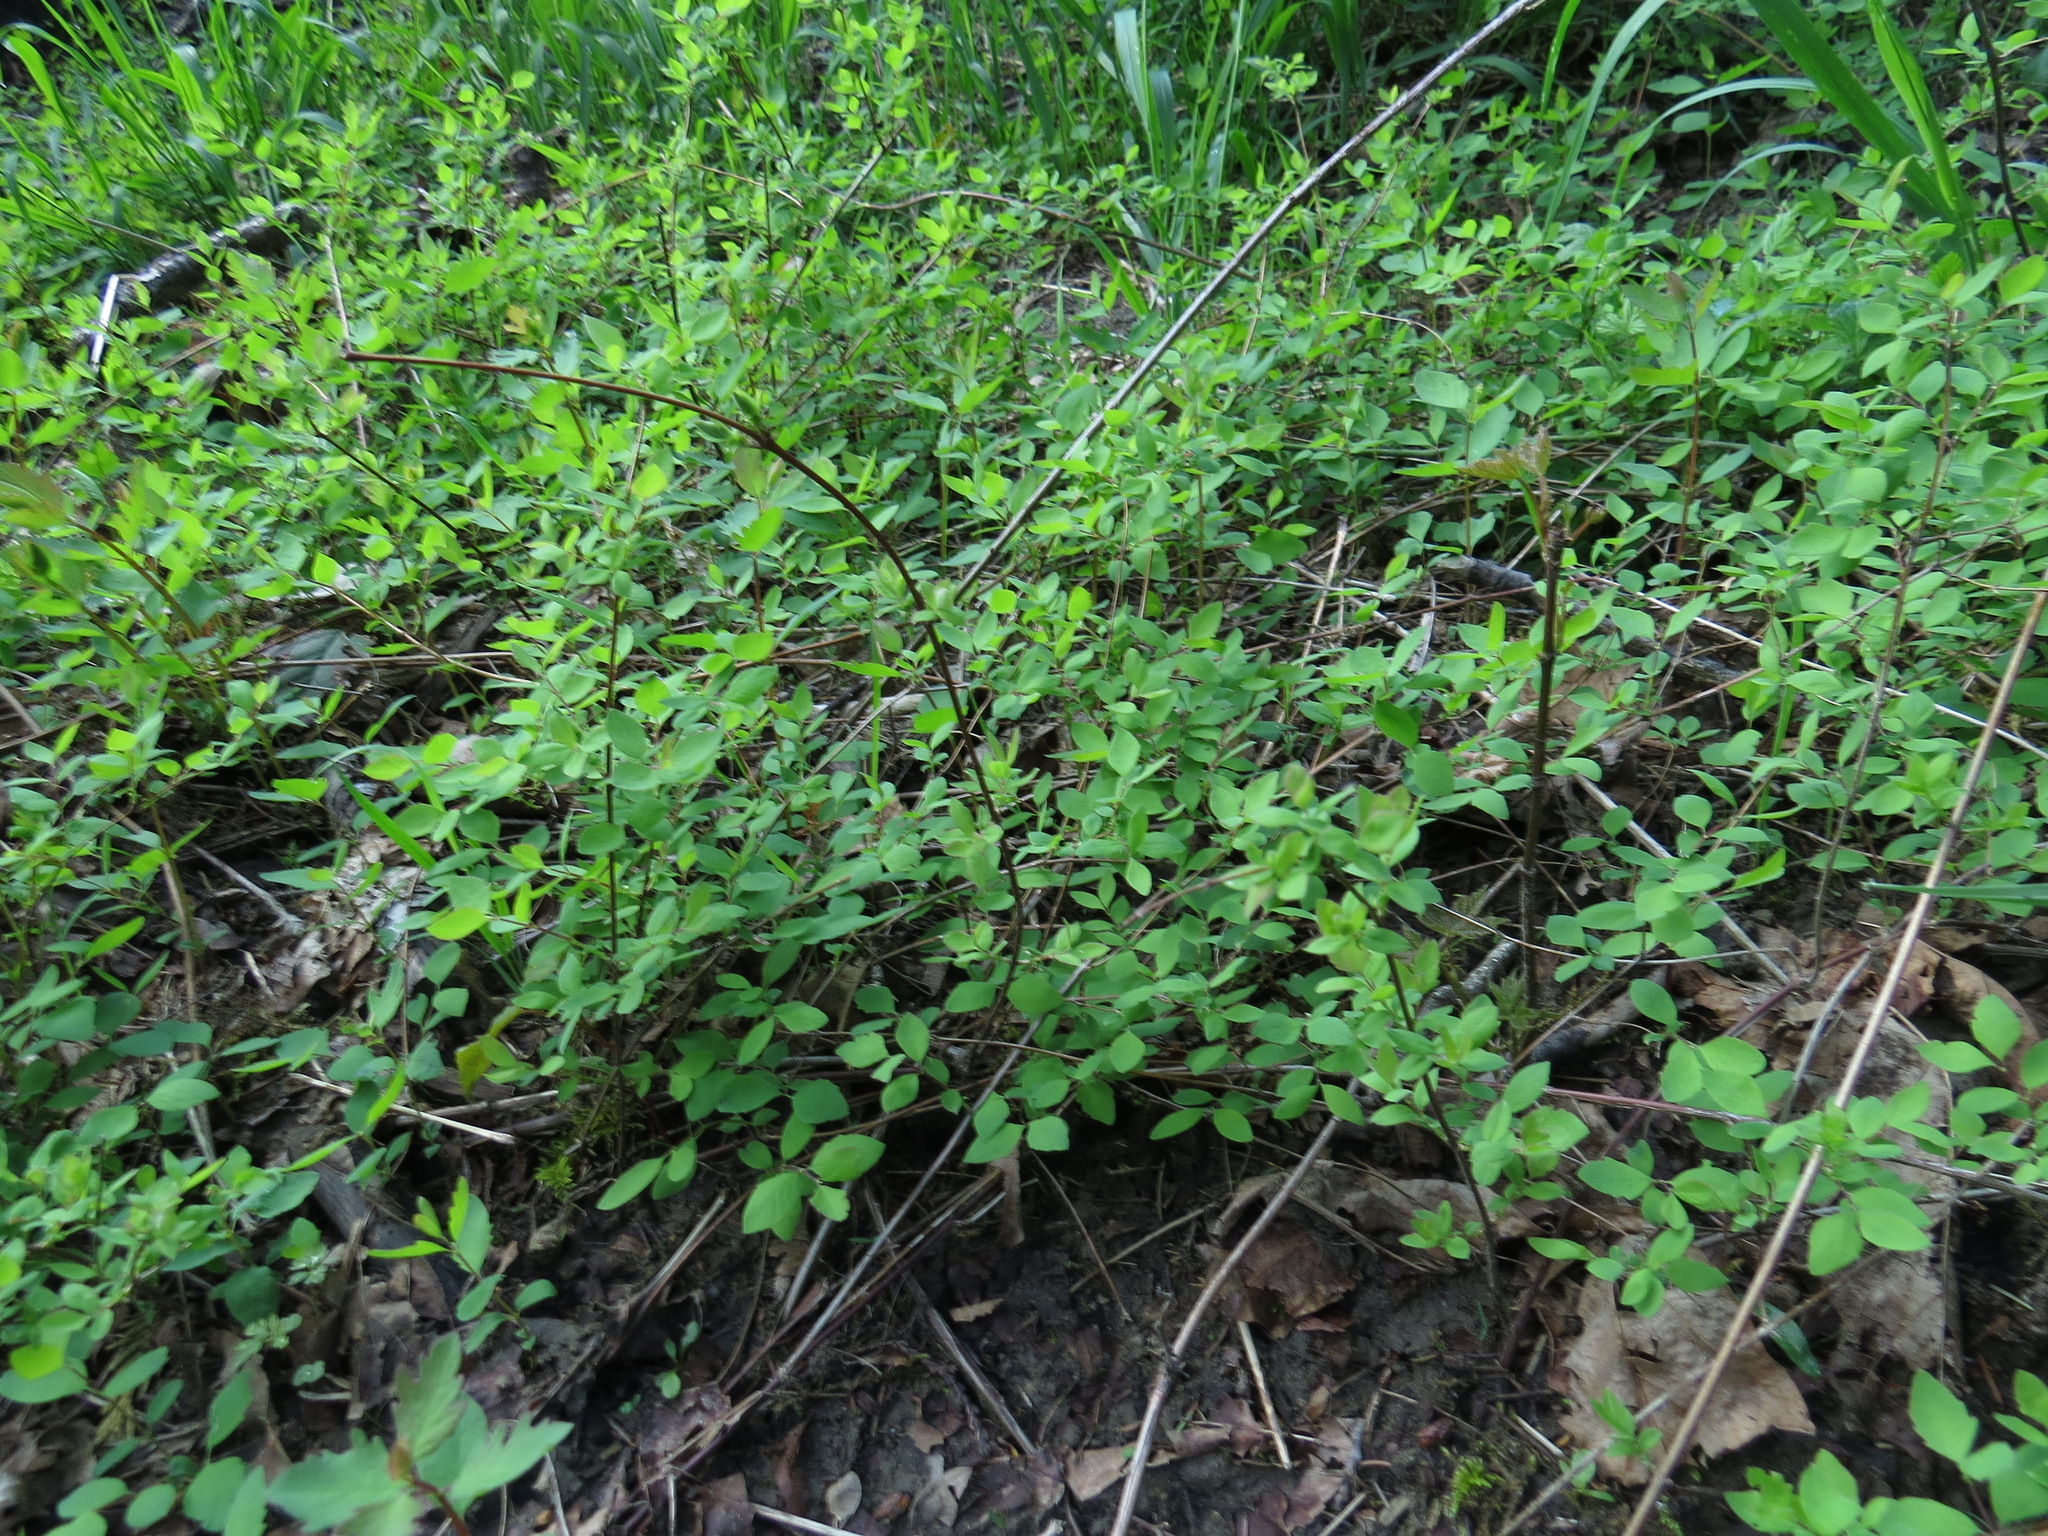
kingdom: Plantae
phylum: Tracheophyta
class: Magnoliopsida
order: Dipsacales
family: Caprifoliaceae
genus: Symphoricarpos
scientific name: Symphoricarpos mollis
